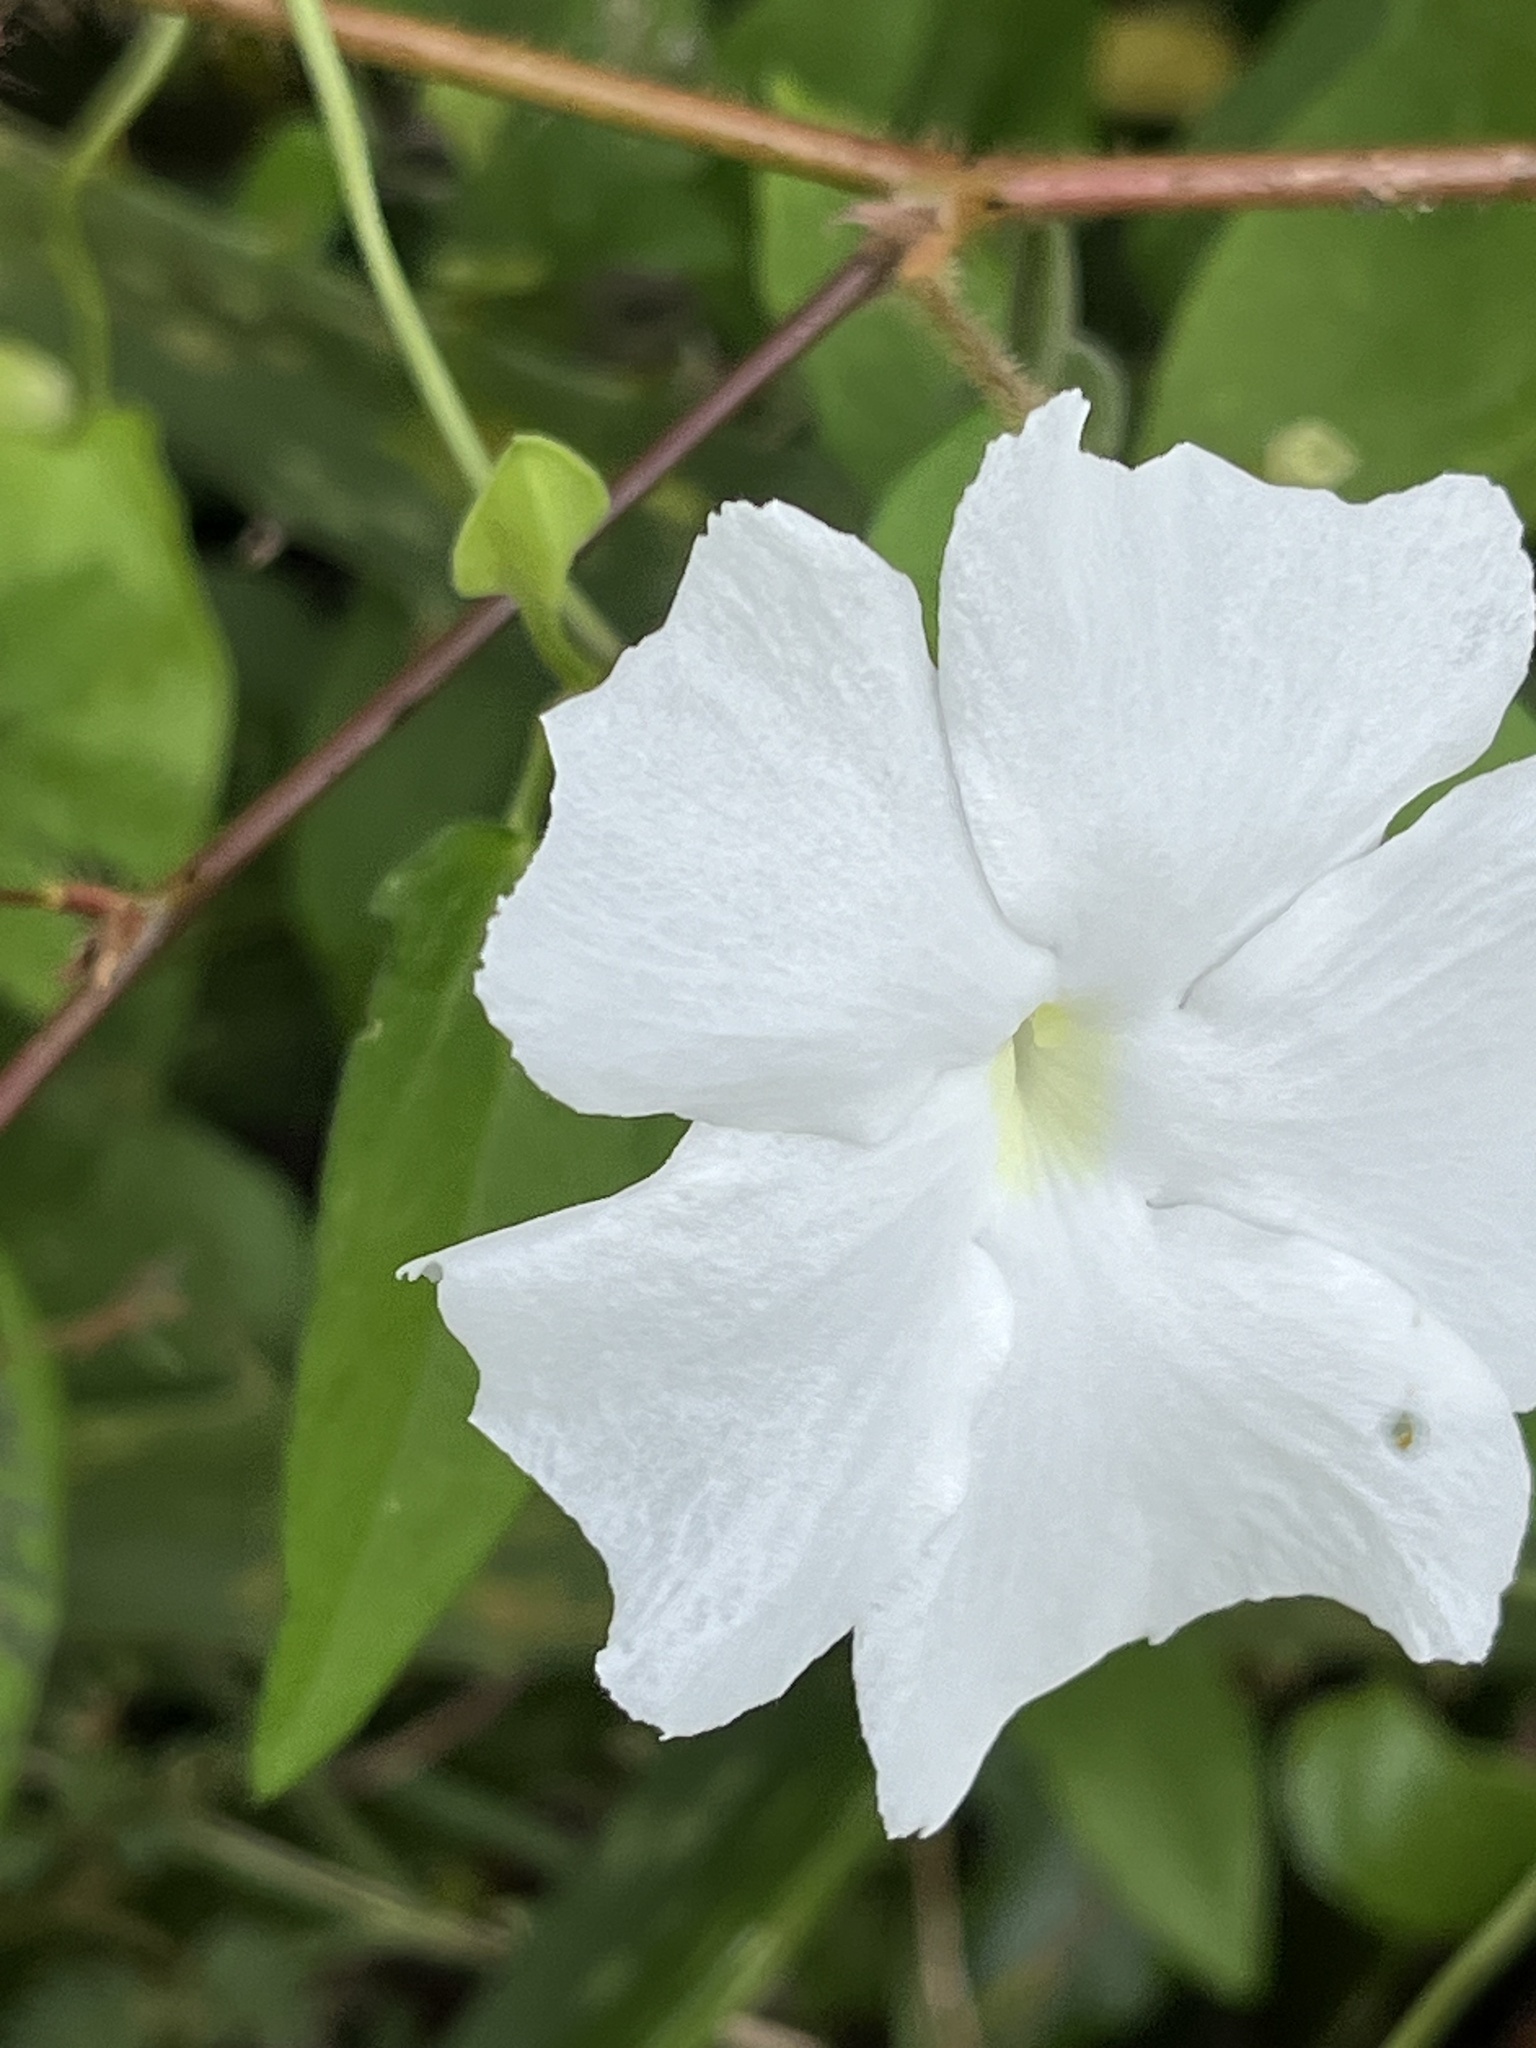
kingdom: Plantae
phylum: Tracheophyta
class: Magnoliopsida
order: Lamiales
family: Acanthaceae
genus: Thunbergia
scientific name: Thunbergia fragrans
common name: Whitelady
